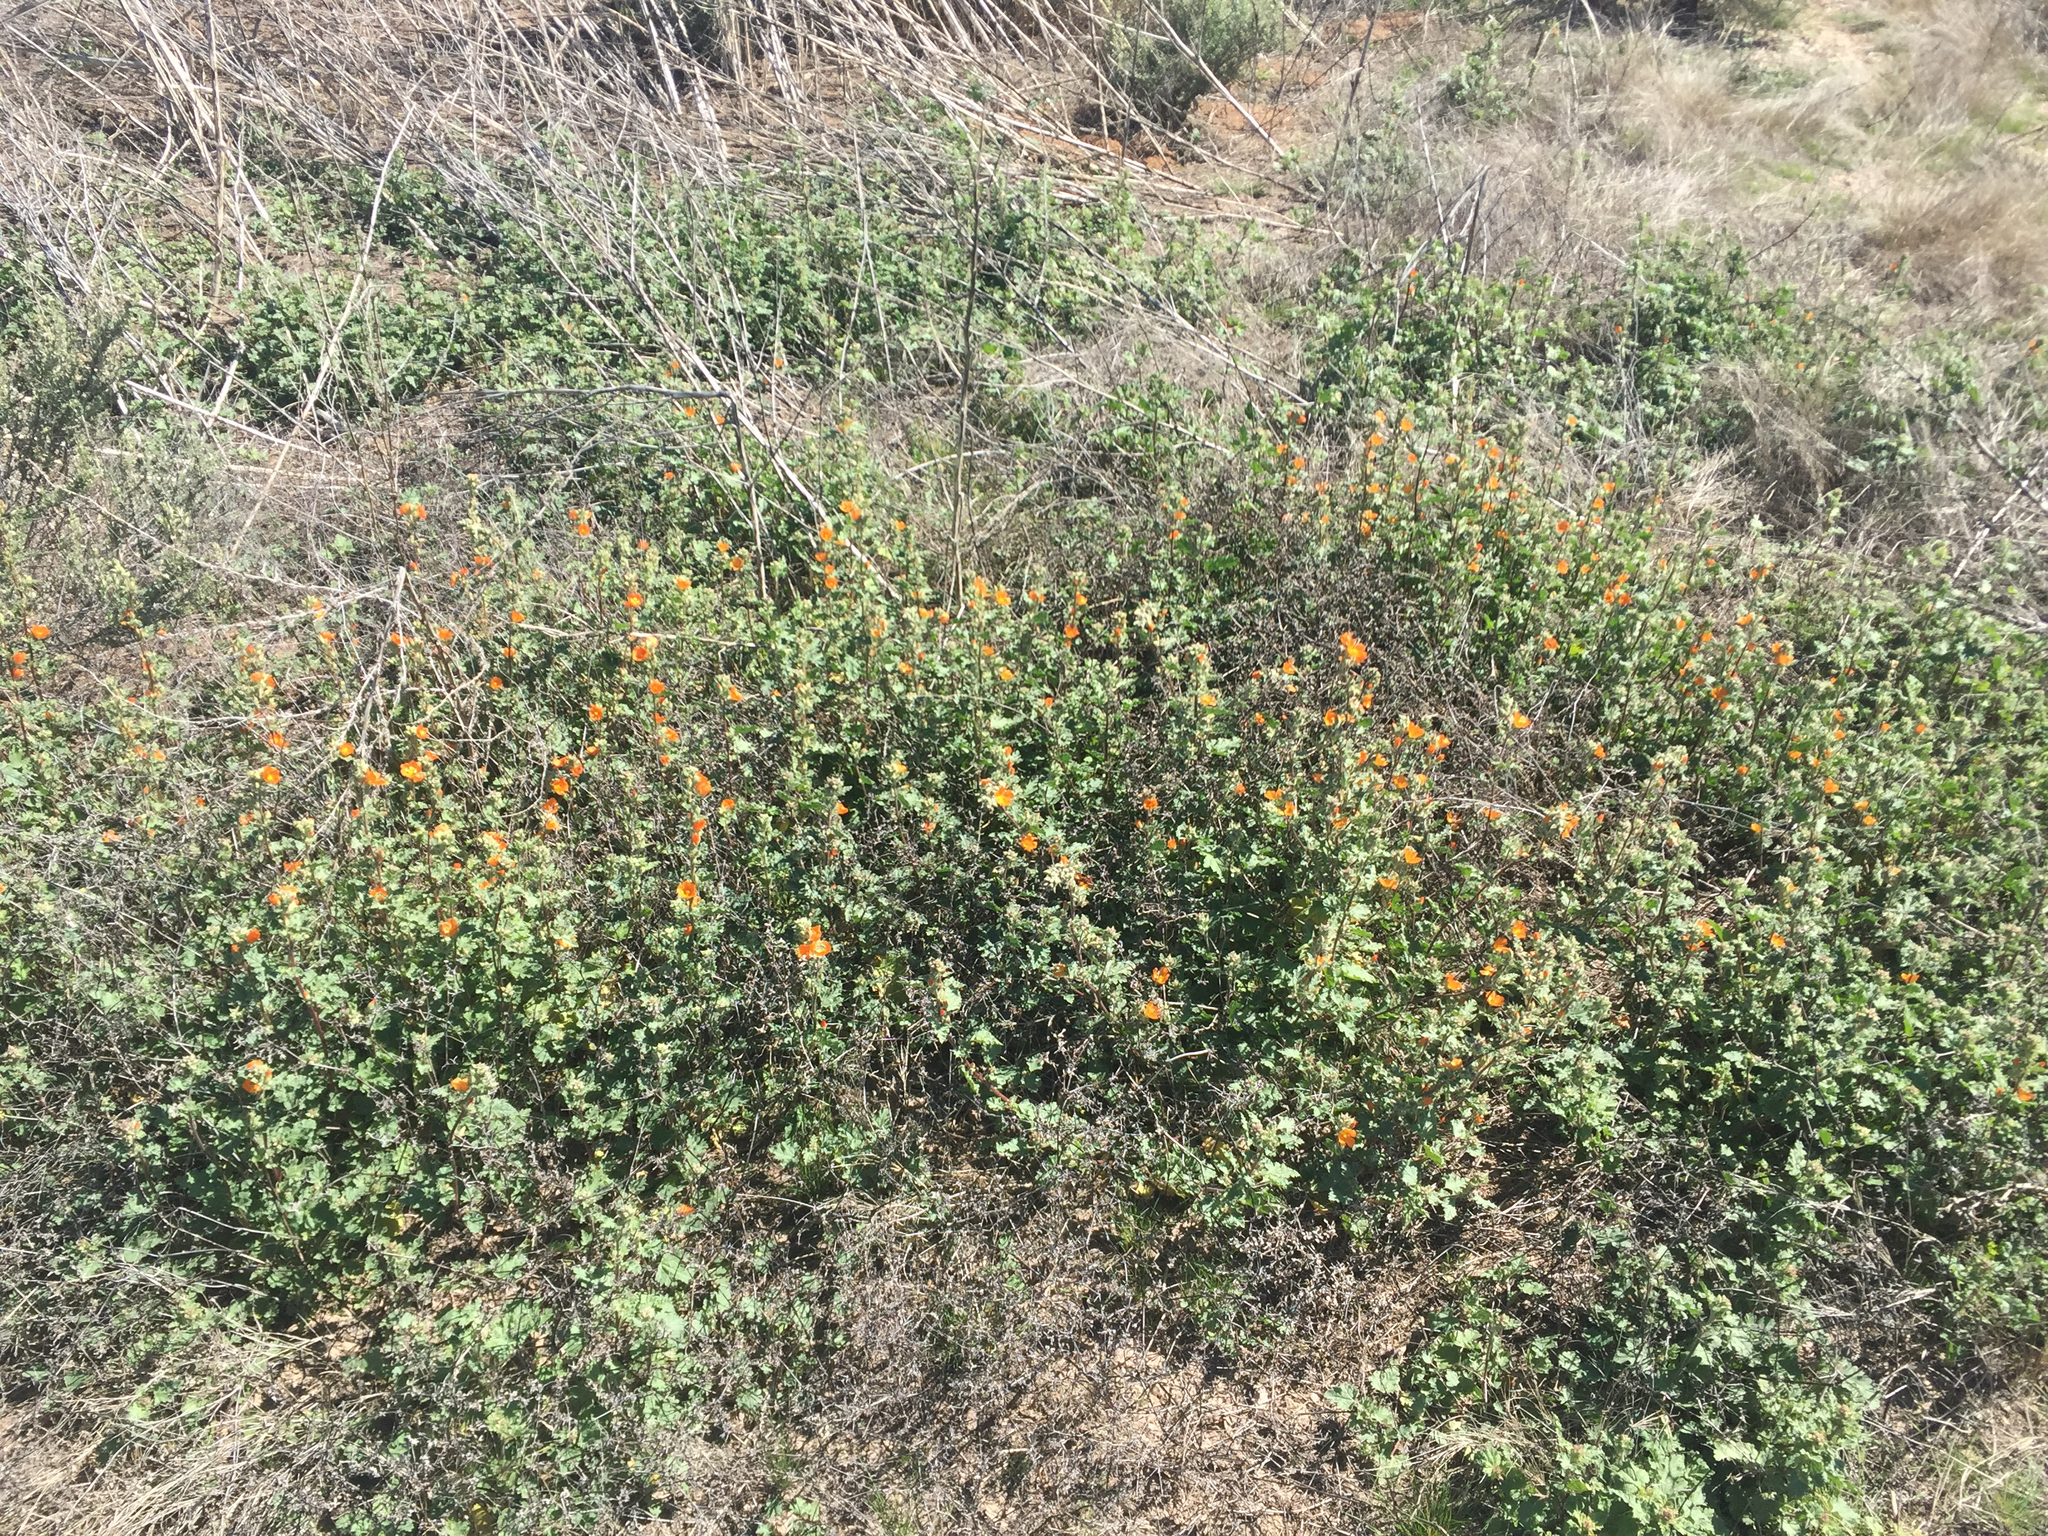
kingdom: Plantae
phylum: Tracheophyta
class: Magnoliopsida
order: Malvales
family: Malvaceae
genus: Sphaeralcea
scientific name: Sphaeralcea ambigua
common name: Apricot globe-mallow
